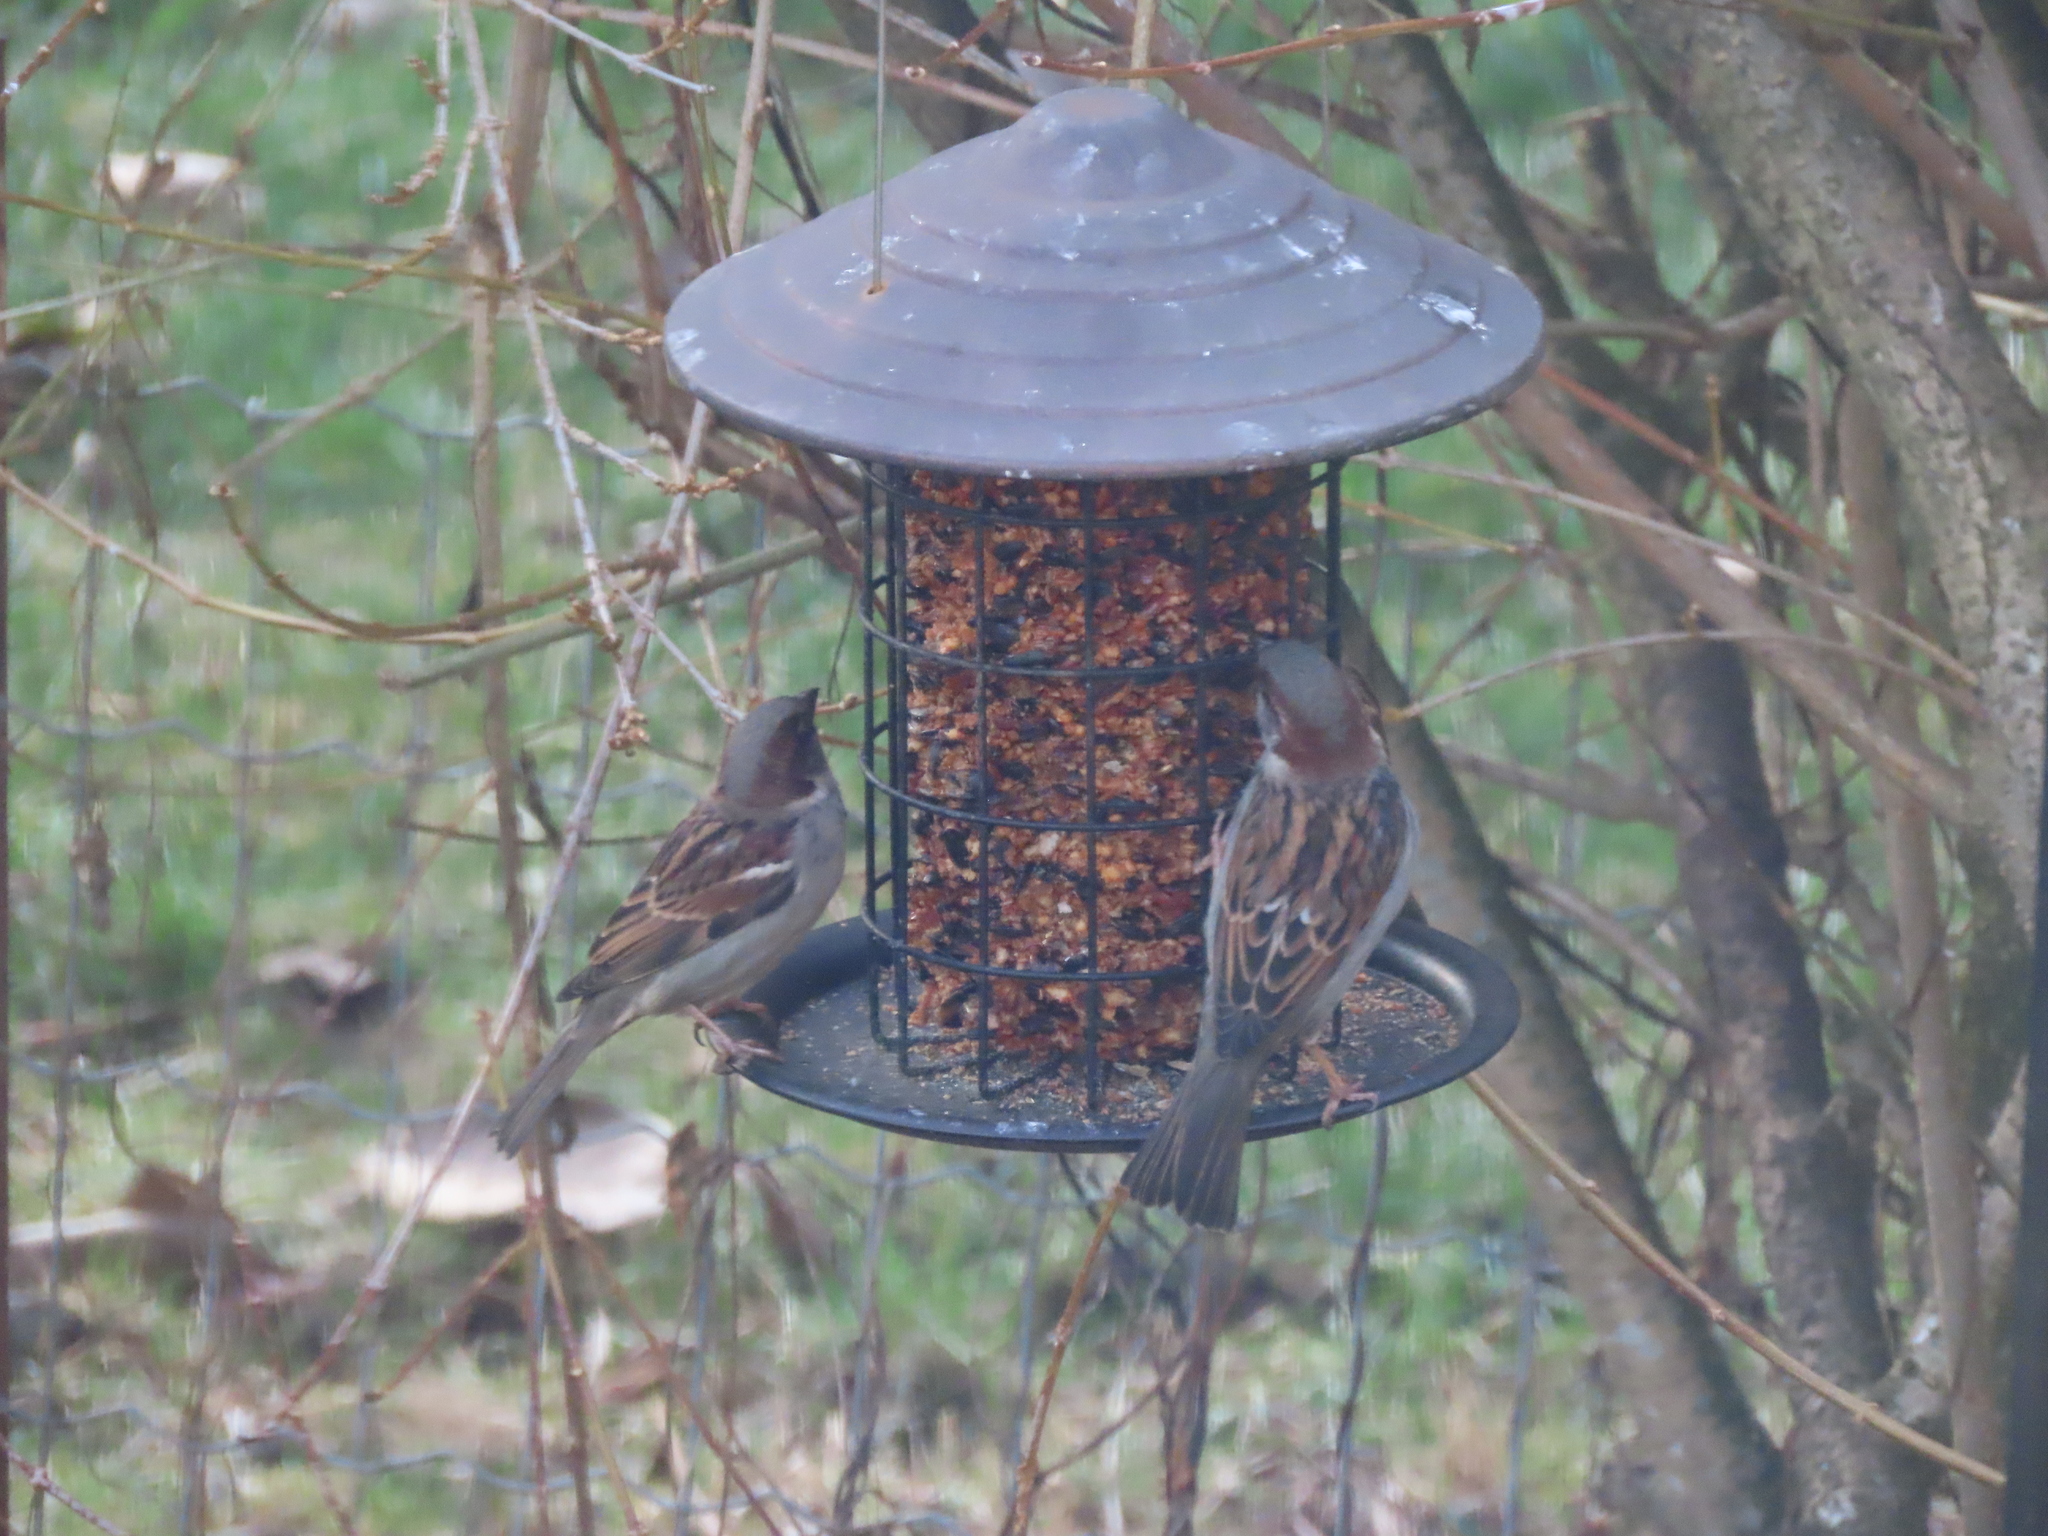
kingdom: Animalia
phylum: Chordata
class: Aves
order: Passeriformes
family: Passeridae
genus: Passer
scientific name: Passer domesticus
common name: House sparrow
